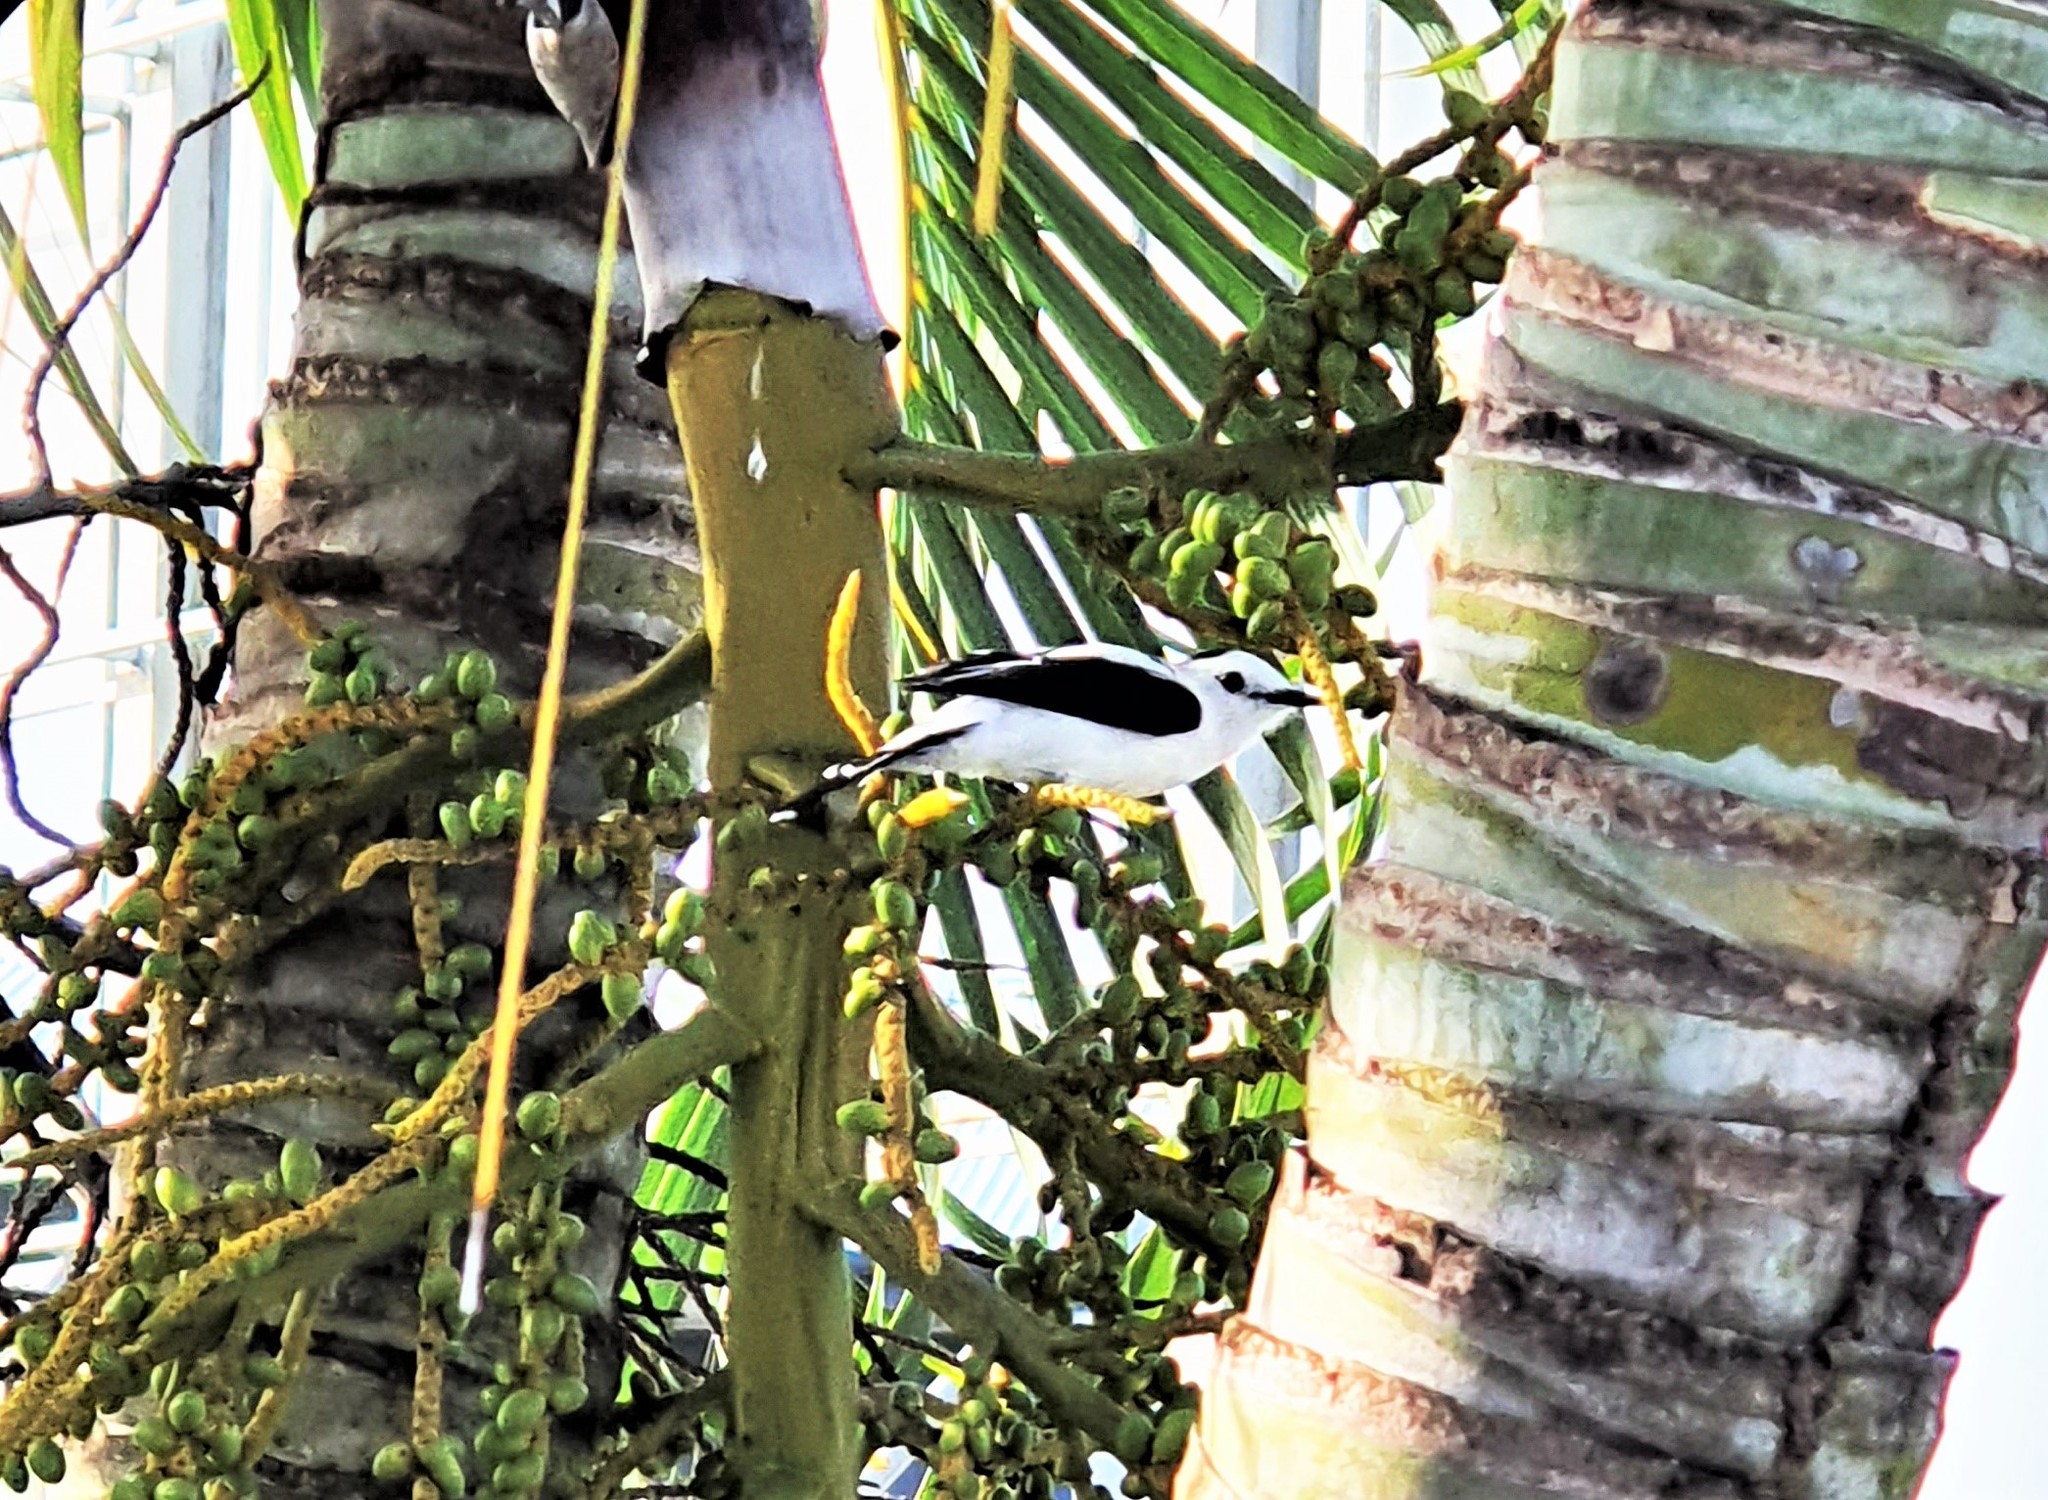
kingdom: Animalia
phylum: Chordata
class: Aves
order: Passeriformes
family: Tyrannidae
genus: Fluvicola
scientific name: Fluvicola pica
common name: Pied water-tyrant
